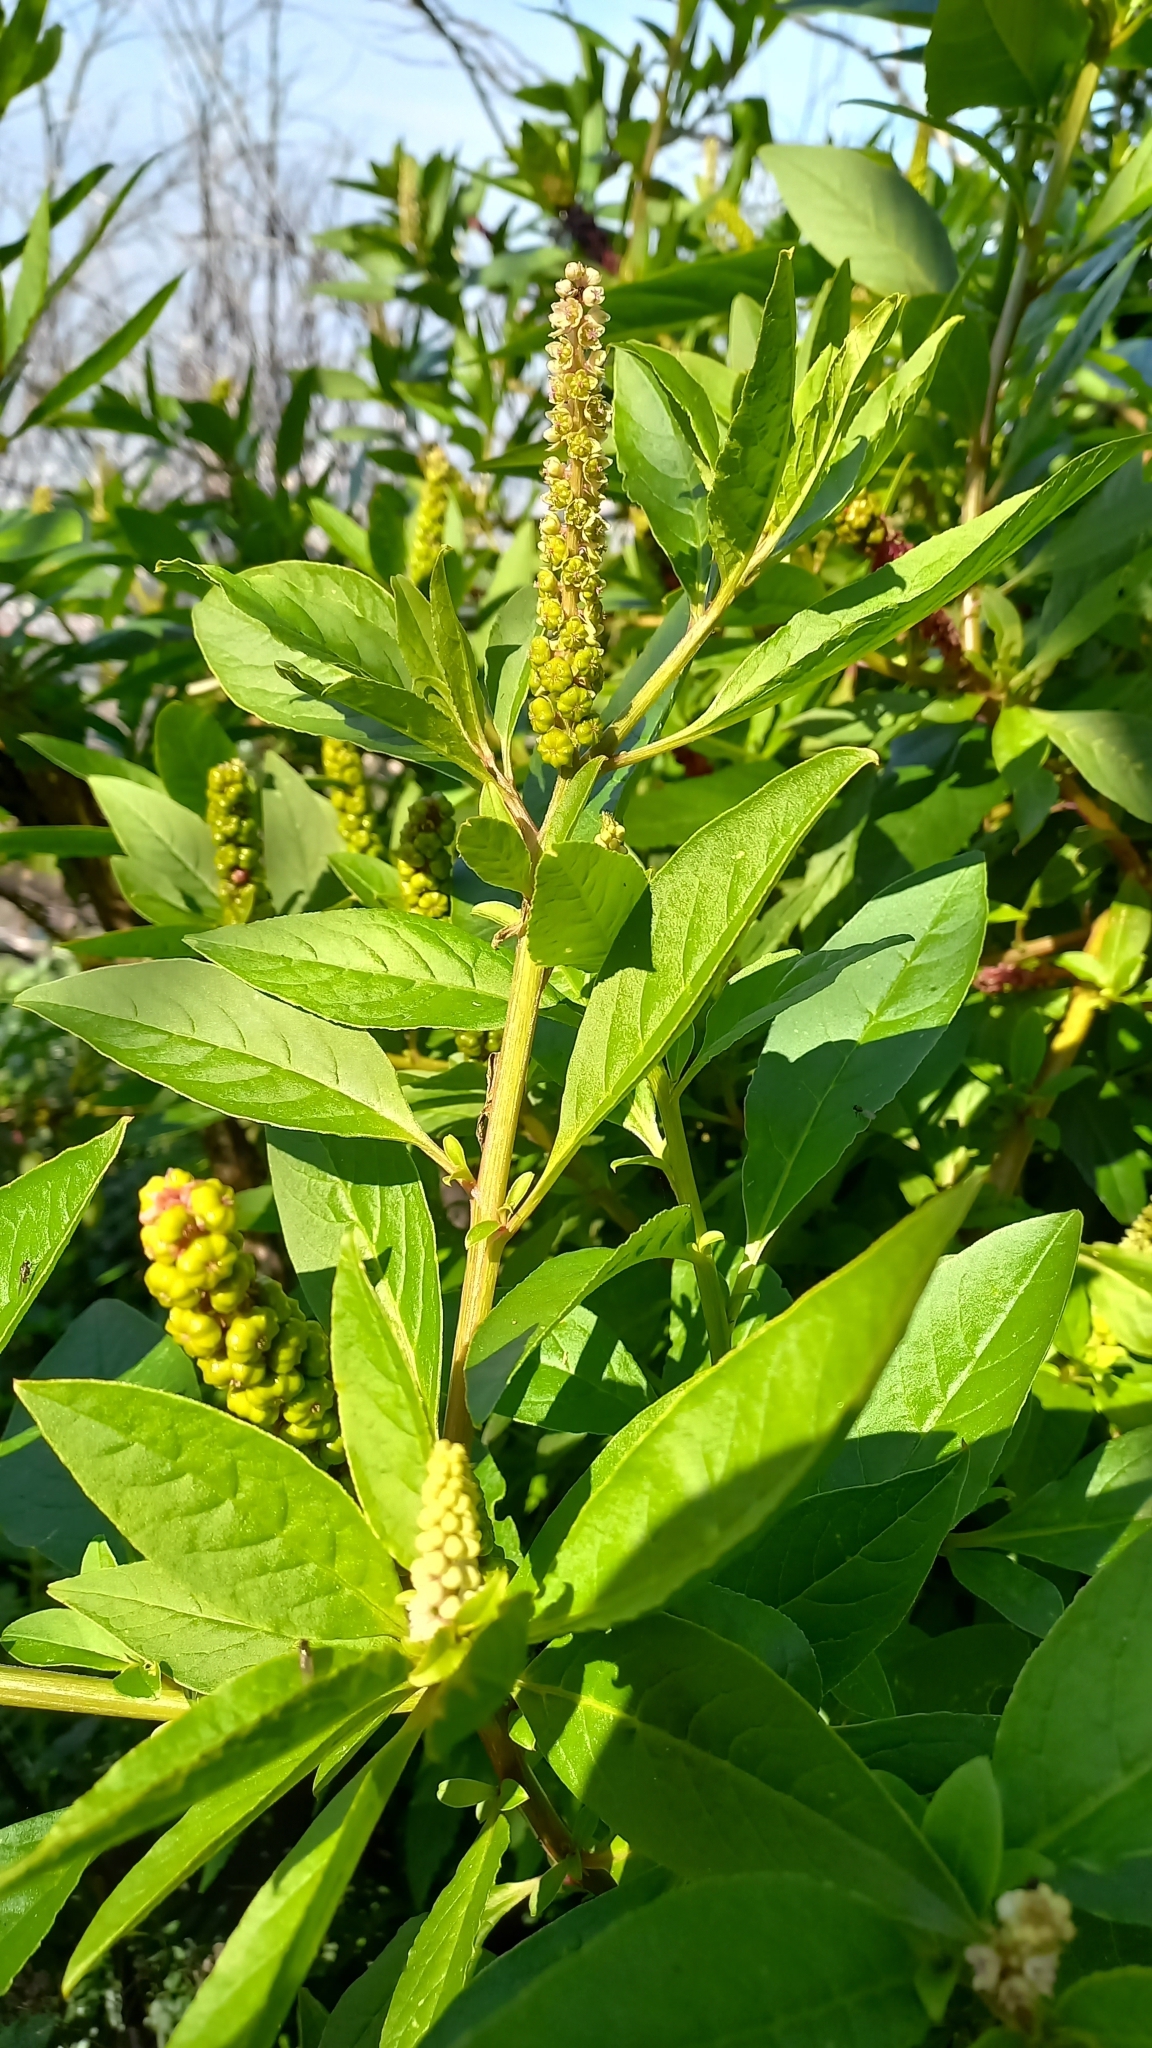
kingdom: Plantae
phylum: Tracheophyta
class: Magnoliopsida
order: Caryophyllales
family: Phytolaccaceae
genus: Phytolacca
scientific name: Phytolacca icosandra
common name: Button pokeweed
